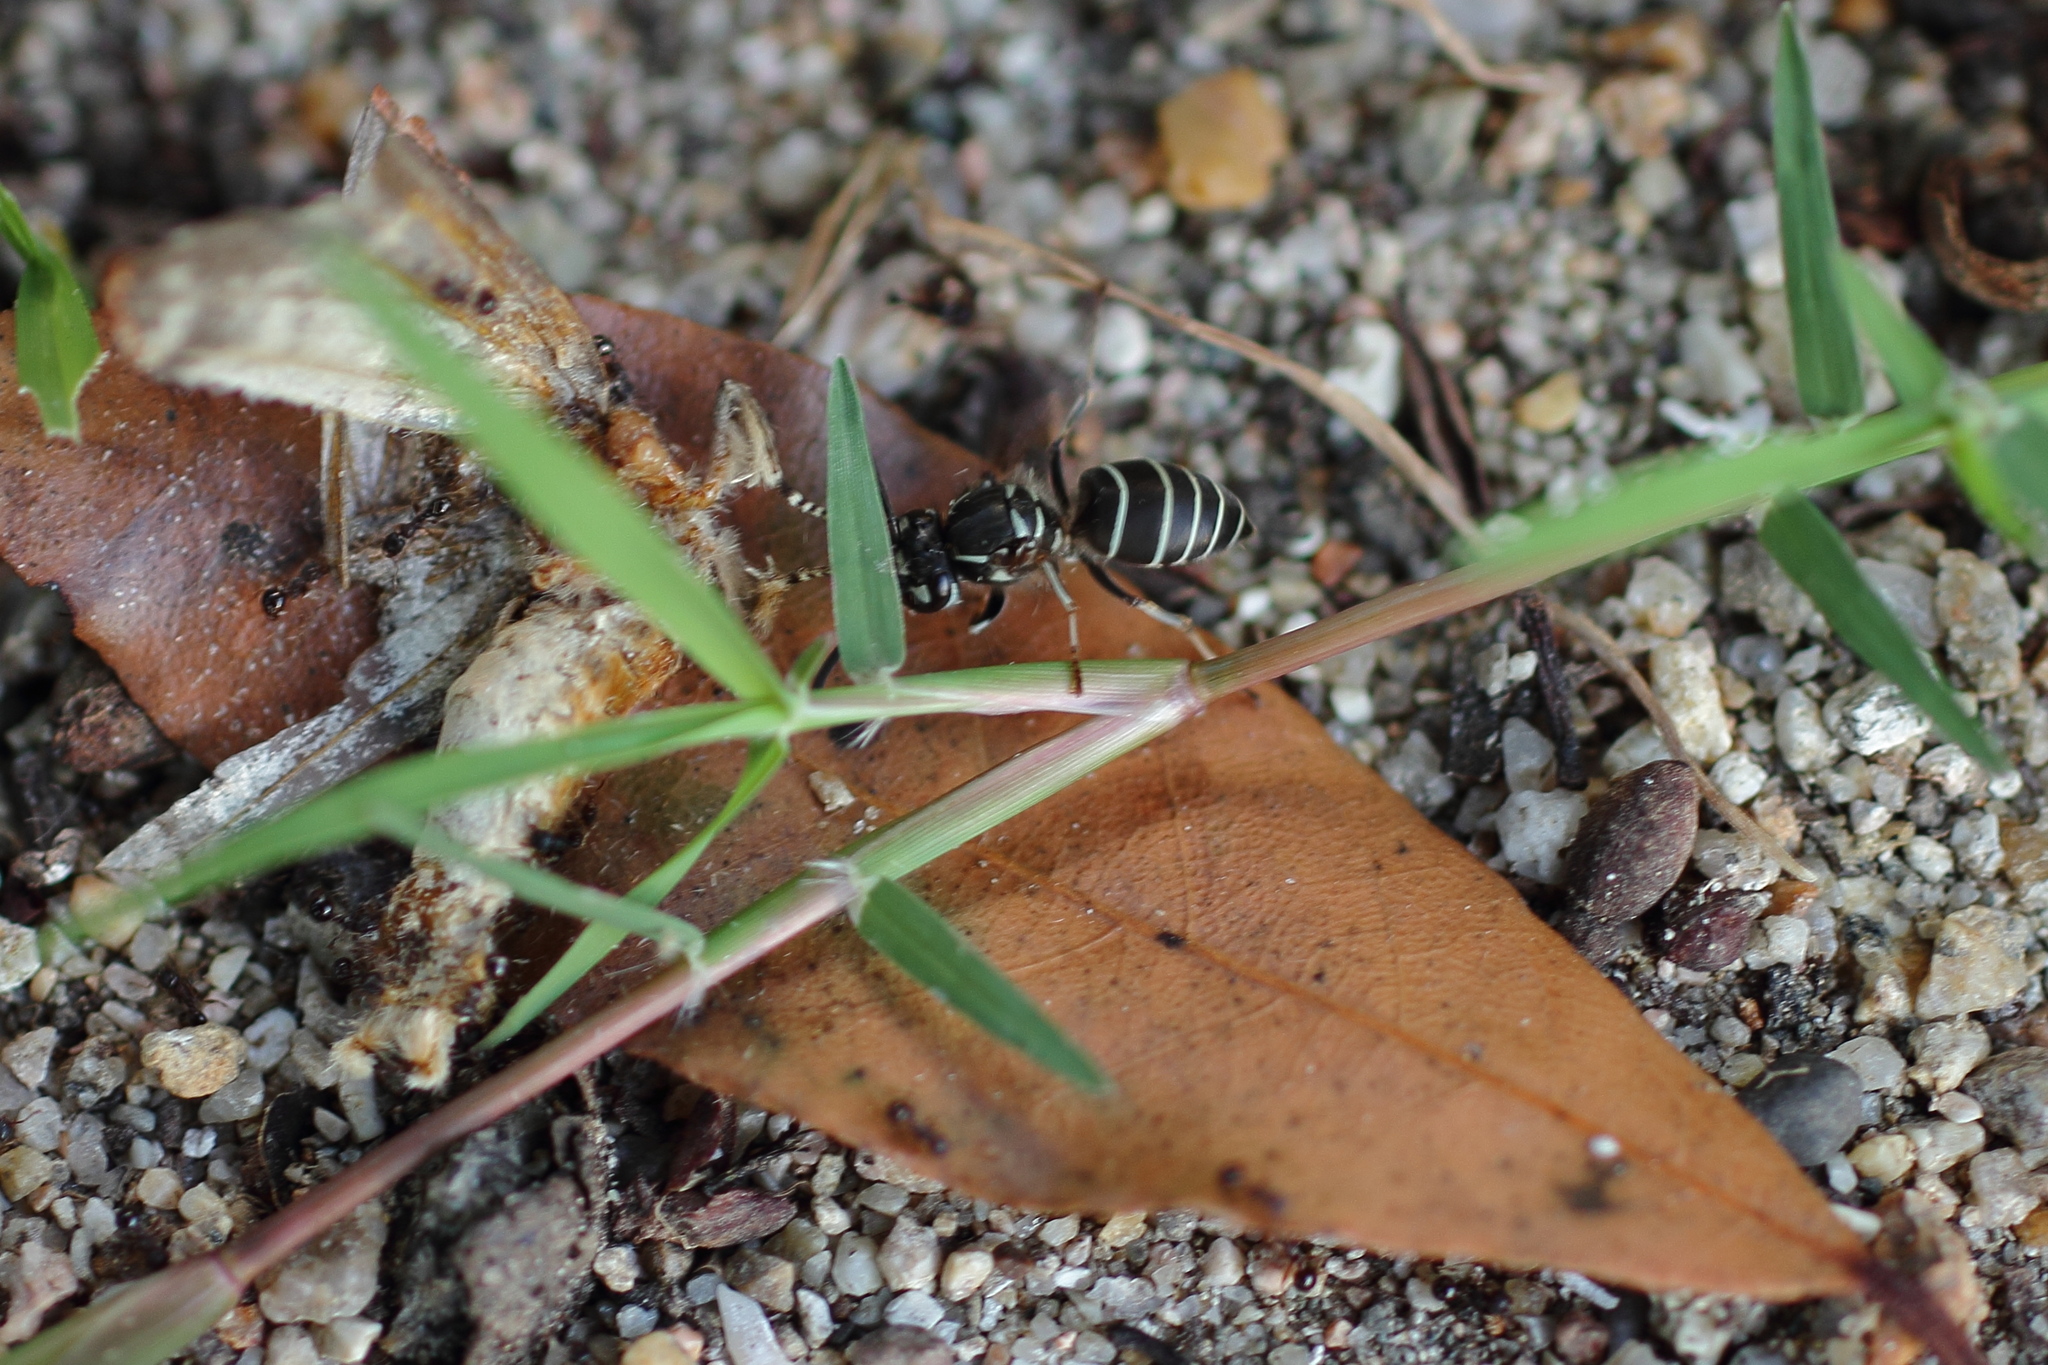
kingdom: Animalia
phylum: Arthropoda
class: Insecta
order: Hymenoptera
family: Vespidae
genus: Vespula
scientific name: Vespula flaviceps
